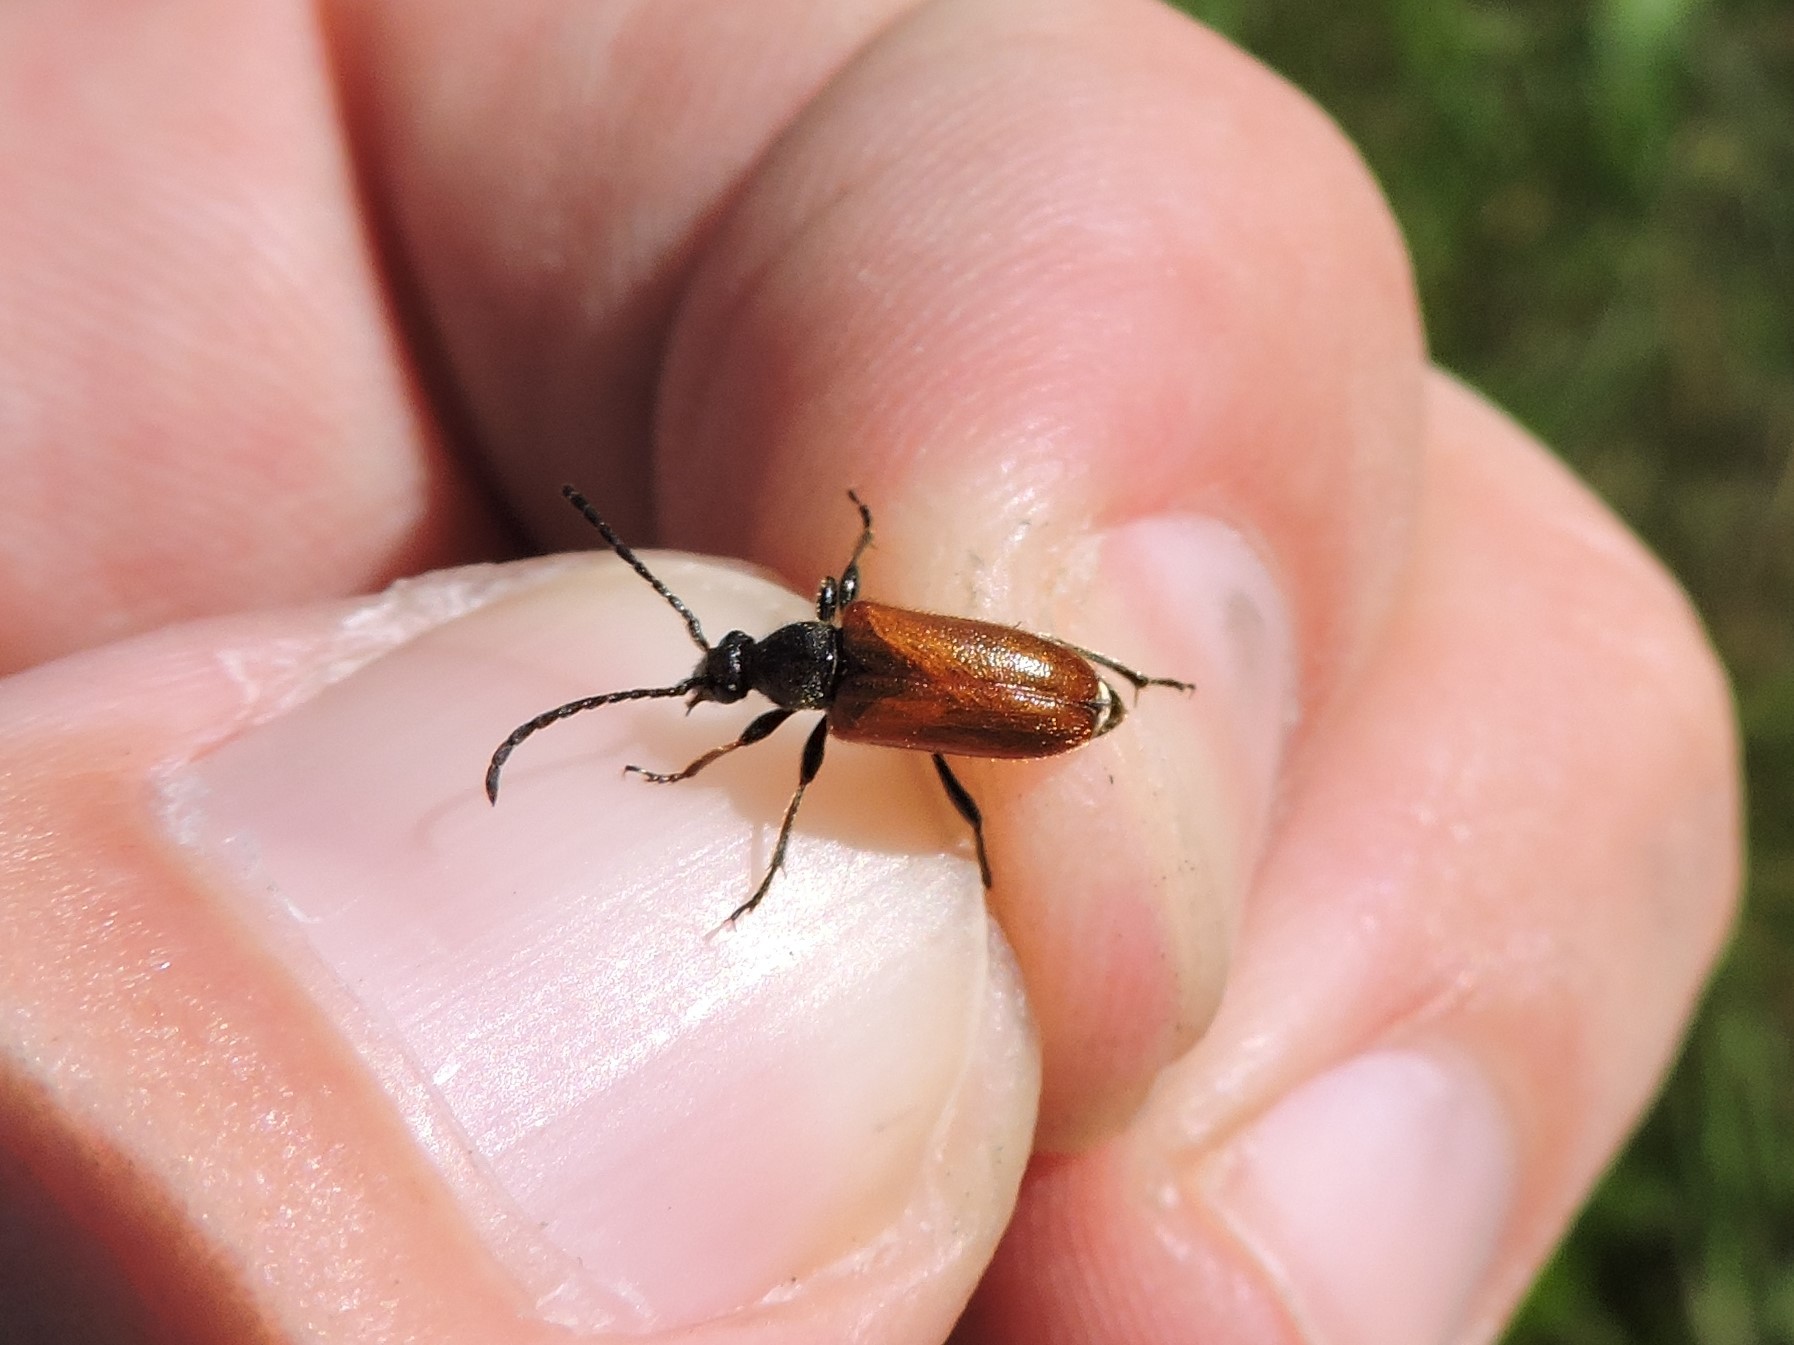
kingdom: Animalia
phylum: Arthropoda
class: Insecta
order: Coleoptera
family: Cerambycidae
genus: Pseudovadonia
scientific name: Pseudovadonia livida
